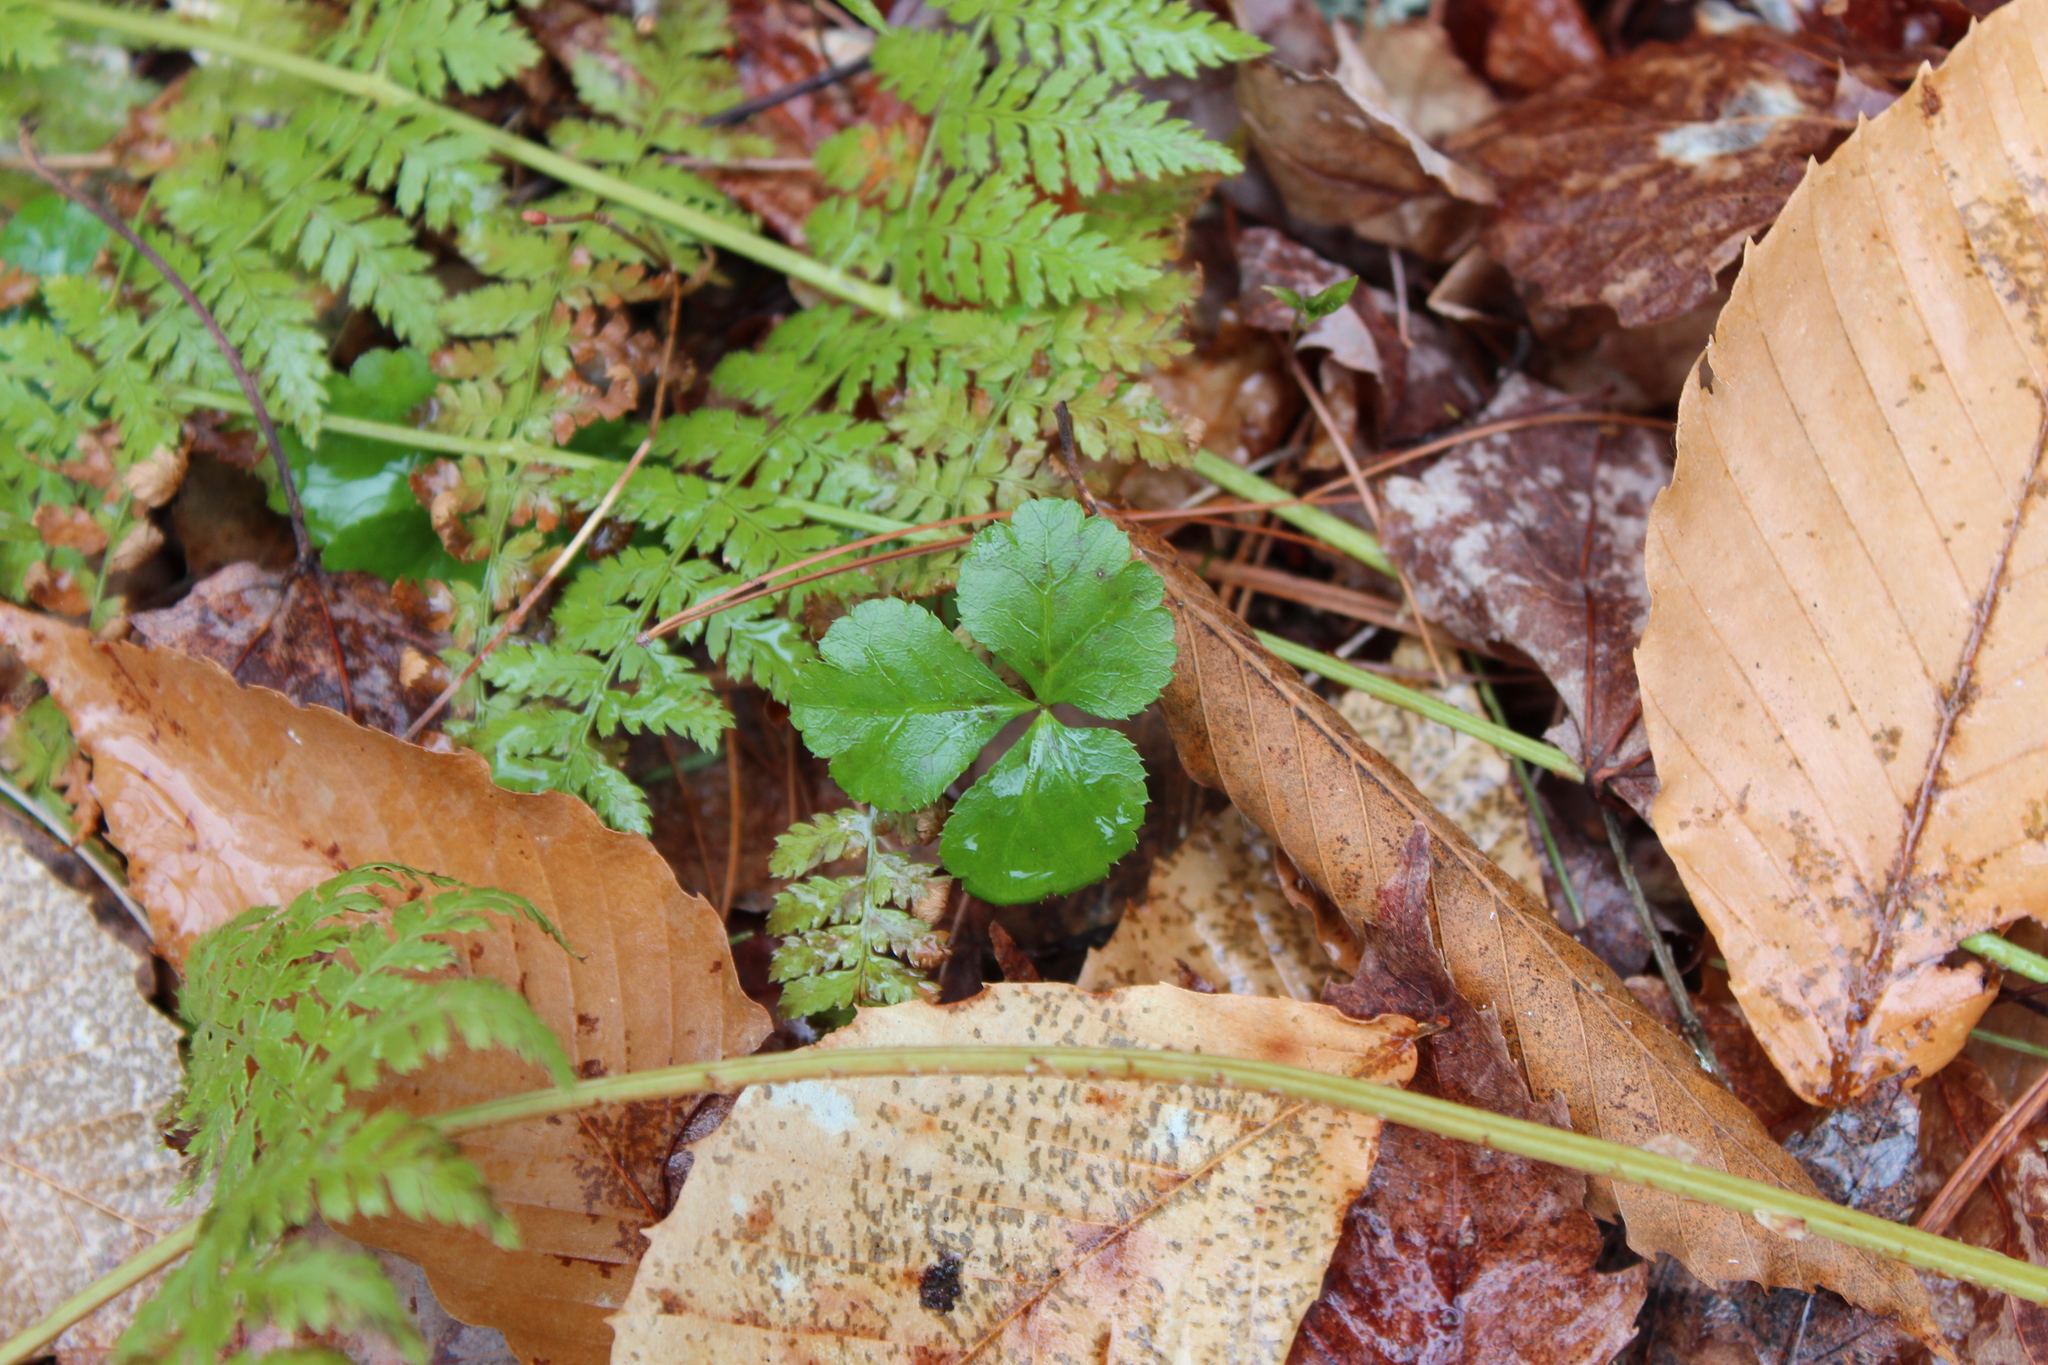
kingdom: Plantae
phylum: Tracheophyta
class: Magnoliopsida
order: Ranunculales
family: Ranunculaceae
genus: Coptis
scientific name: Coptis trifolia
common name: Canker-root
